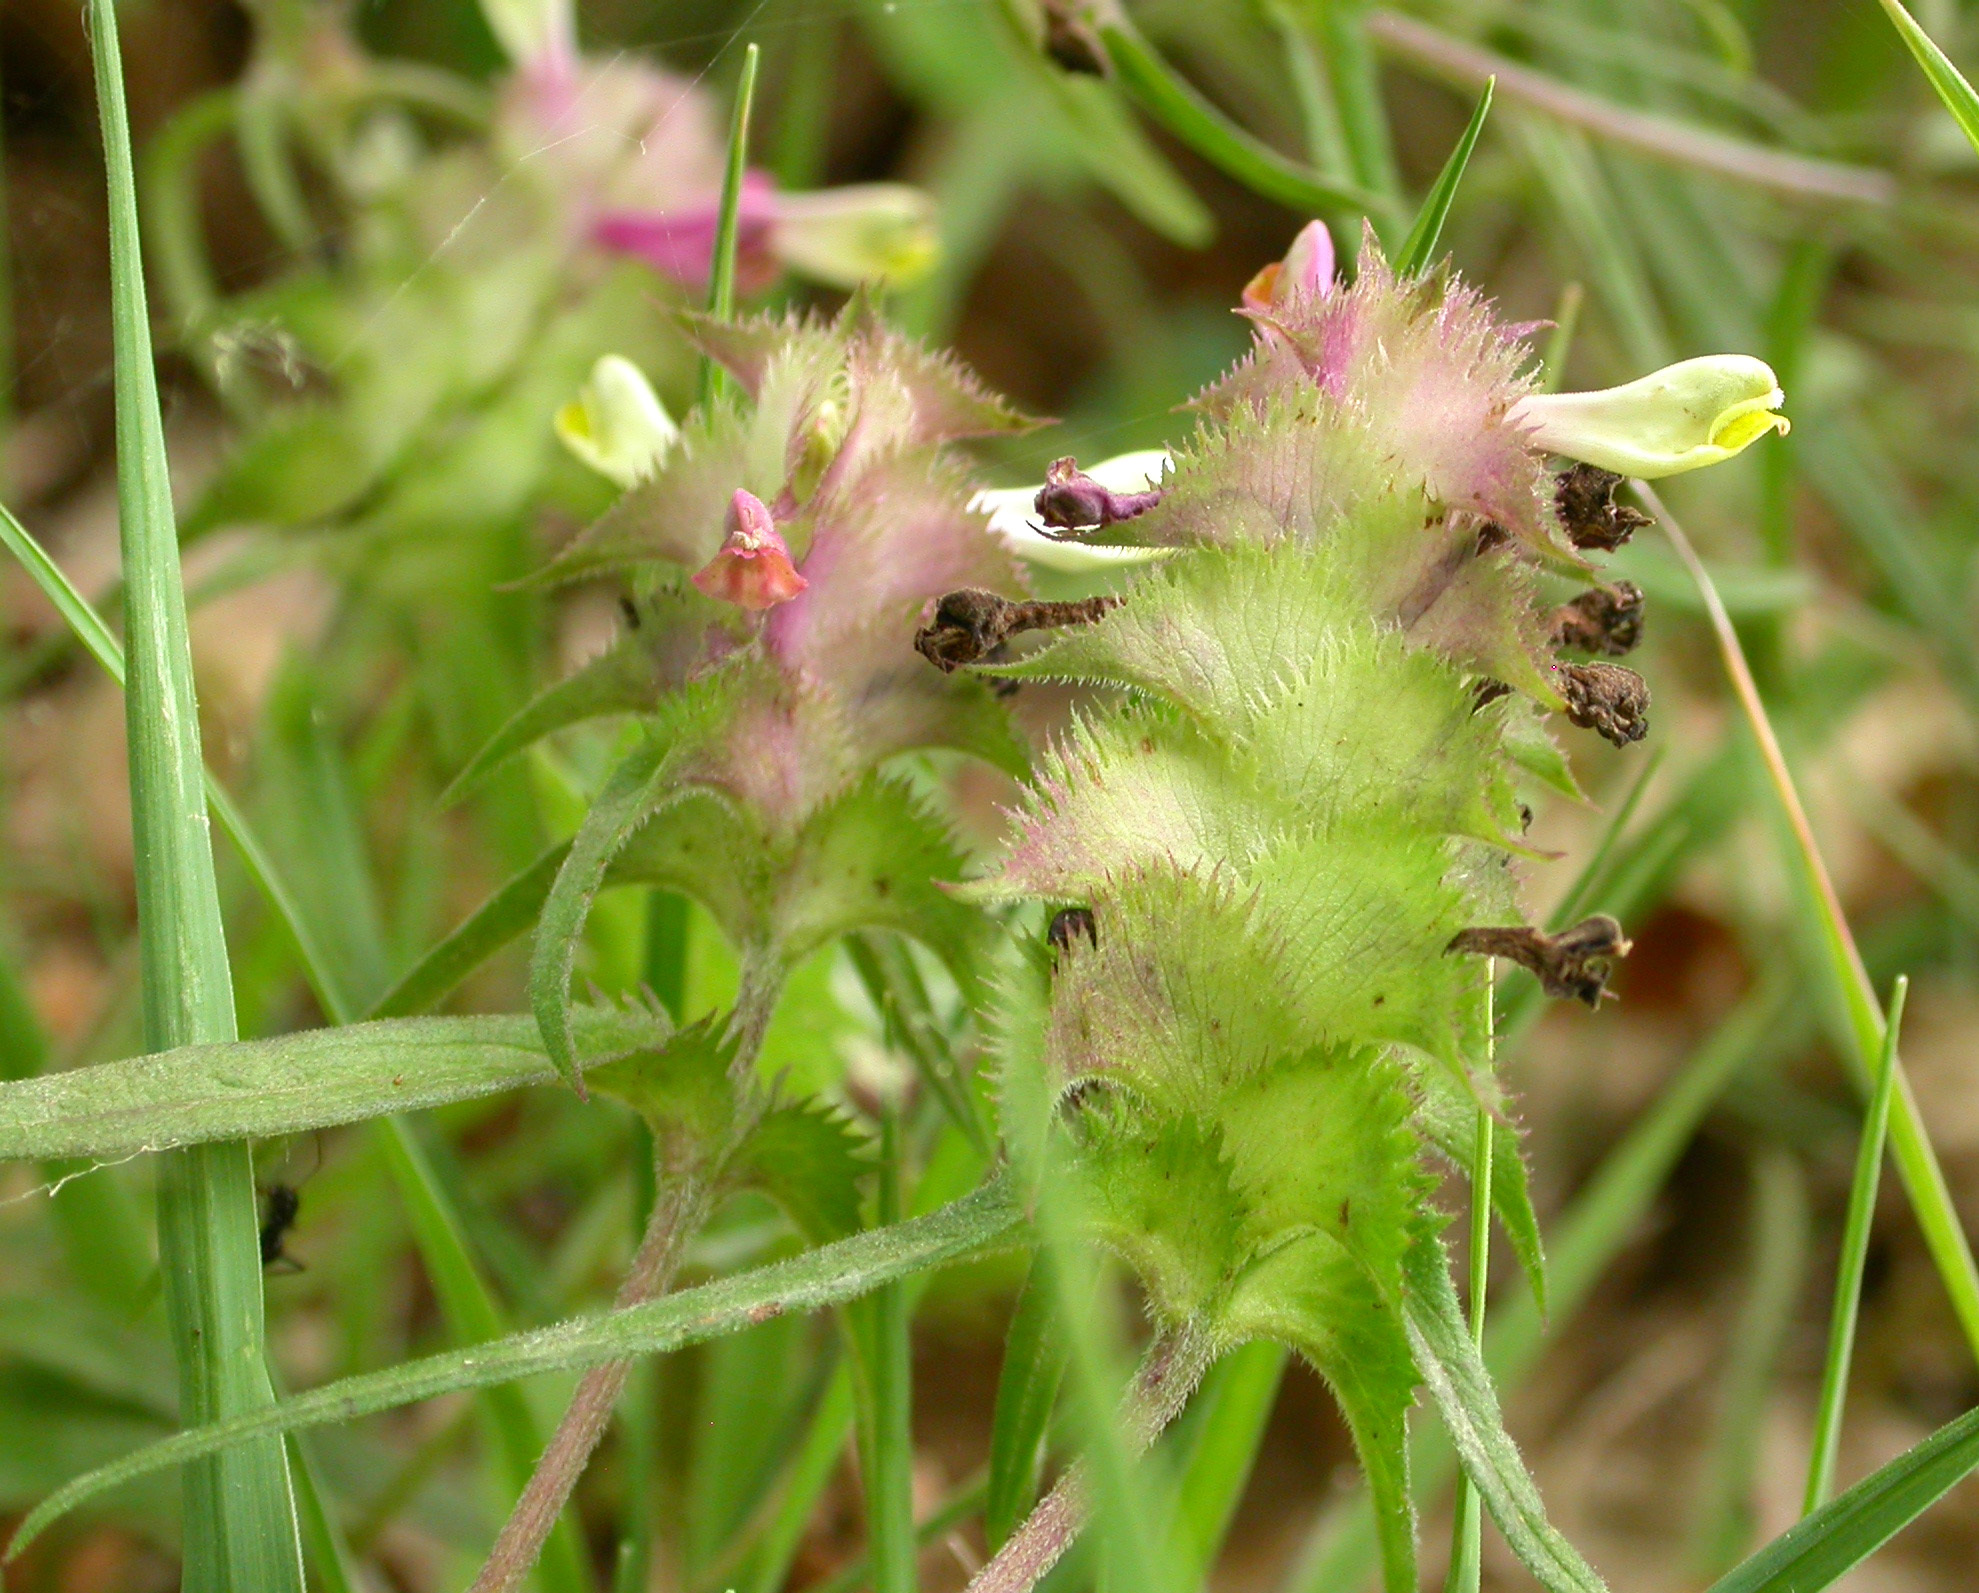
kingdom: Plantae
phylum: Tracheophyta
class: Magnoliopsida
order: Lamiales
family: Orobanchaceae
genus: Melampyrum
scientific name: Melampyrum cristatum
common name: Crested cow-wheat
